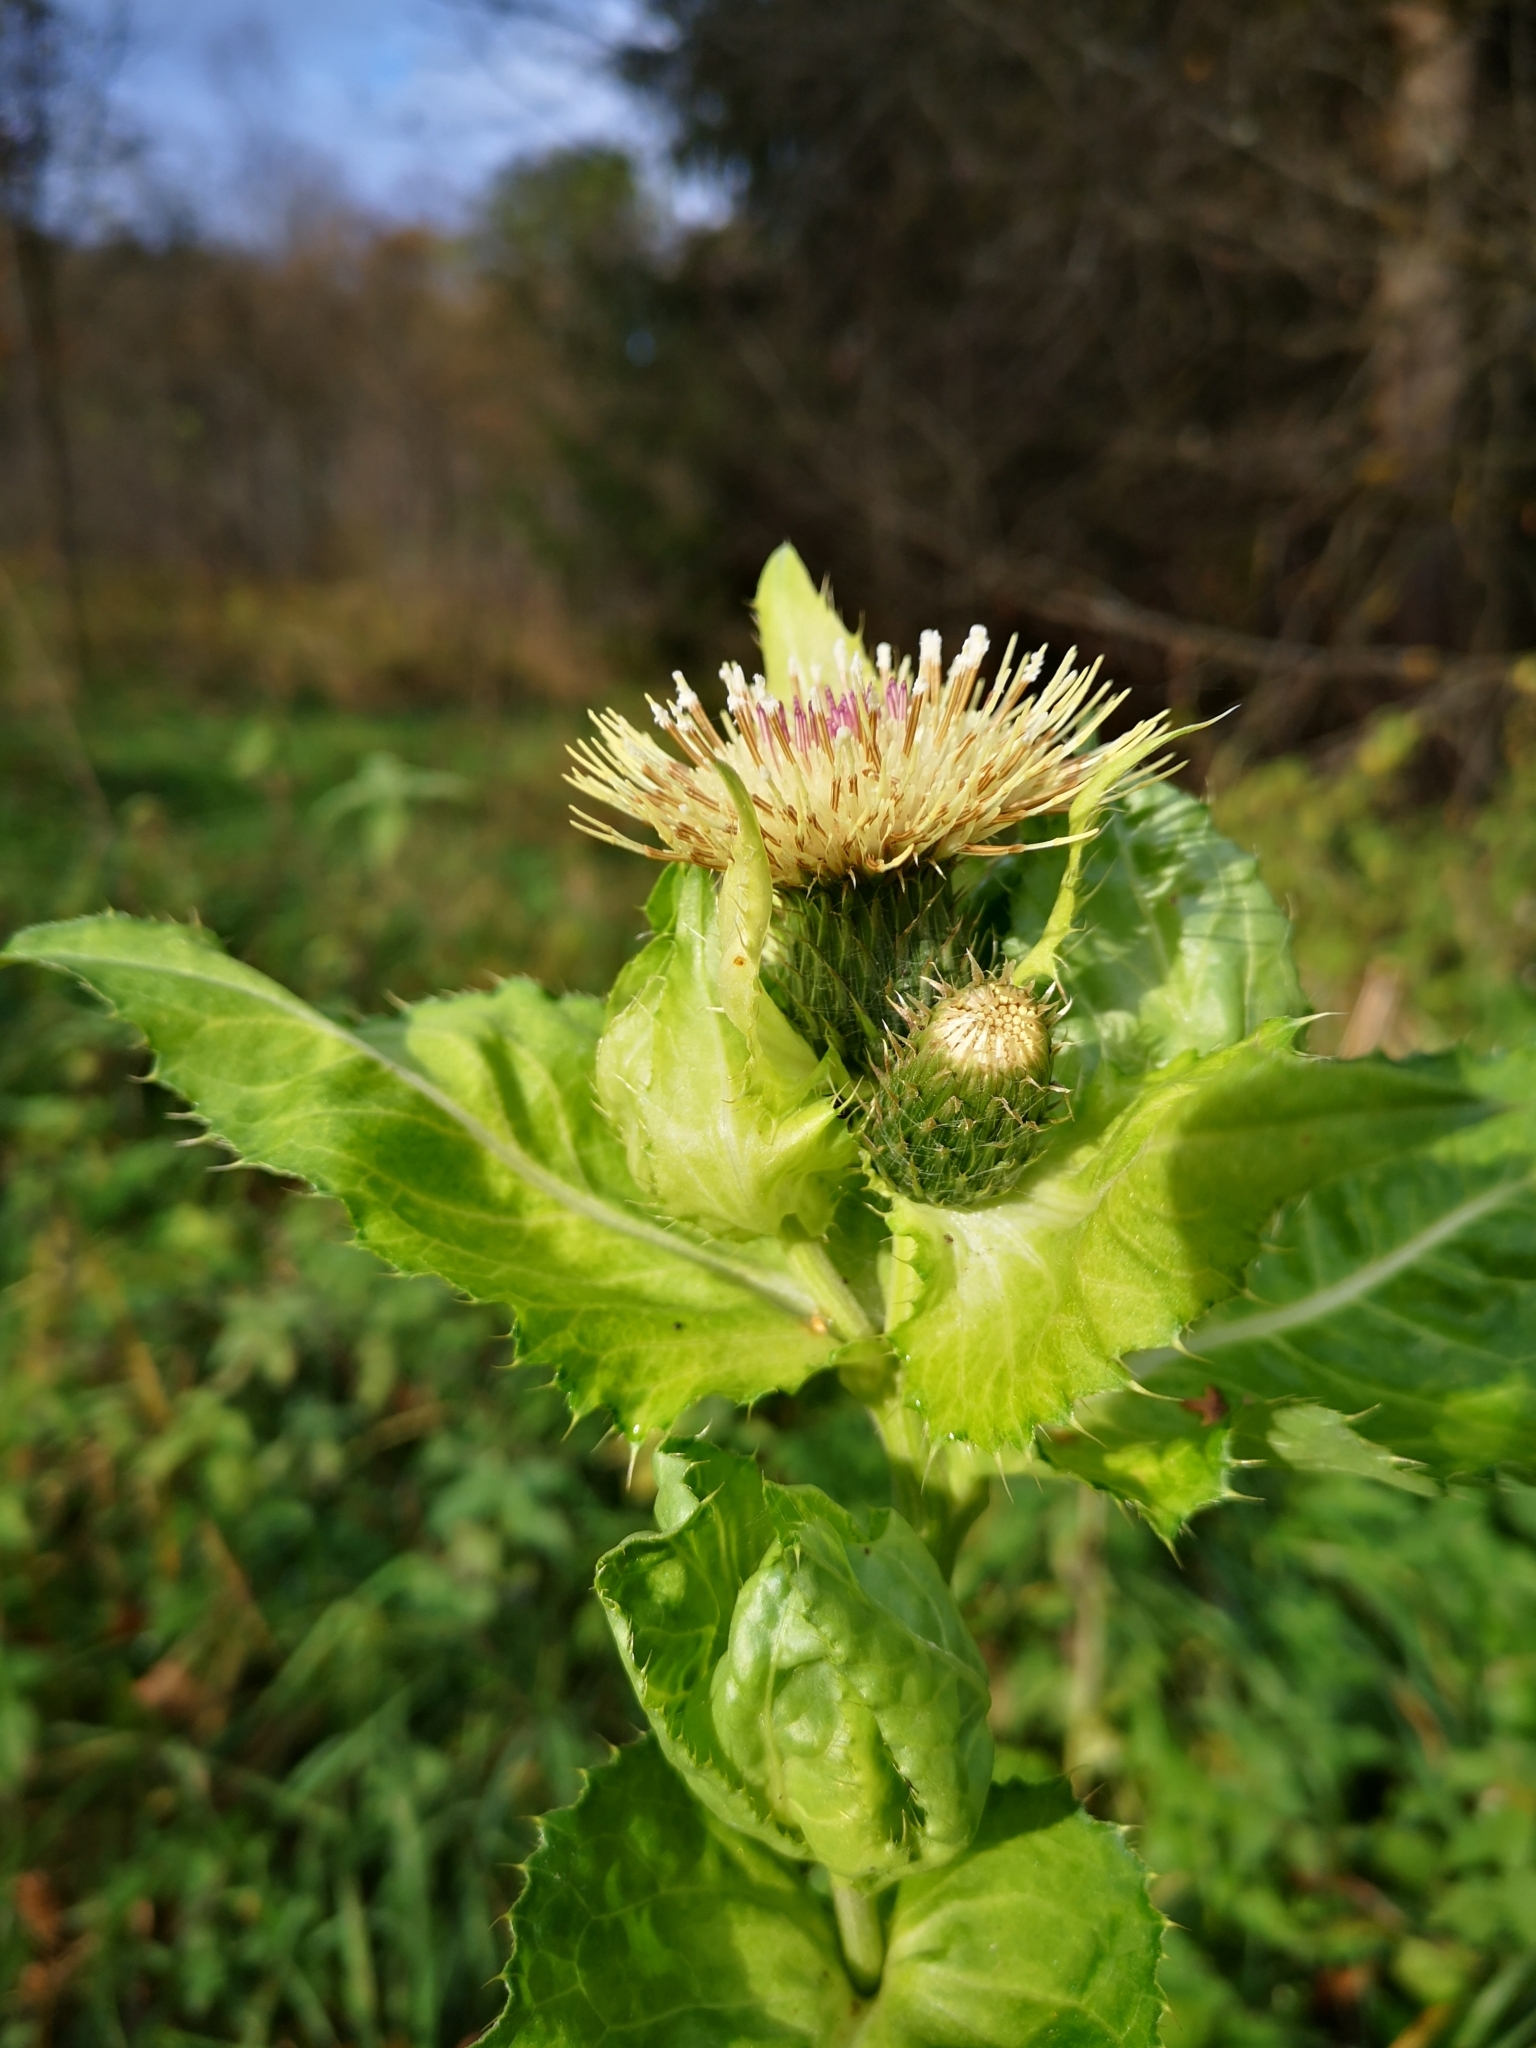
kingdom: Plantae
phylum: Tracheophyta
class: Magnoliopsida
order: Asterales
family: Asteraceae
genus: Cirsium
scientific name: Cirsium oleraceum
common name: Cabbage thistle
